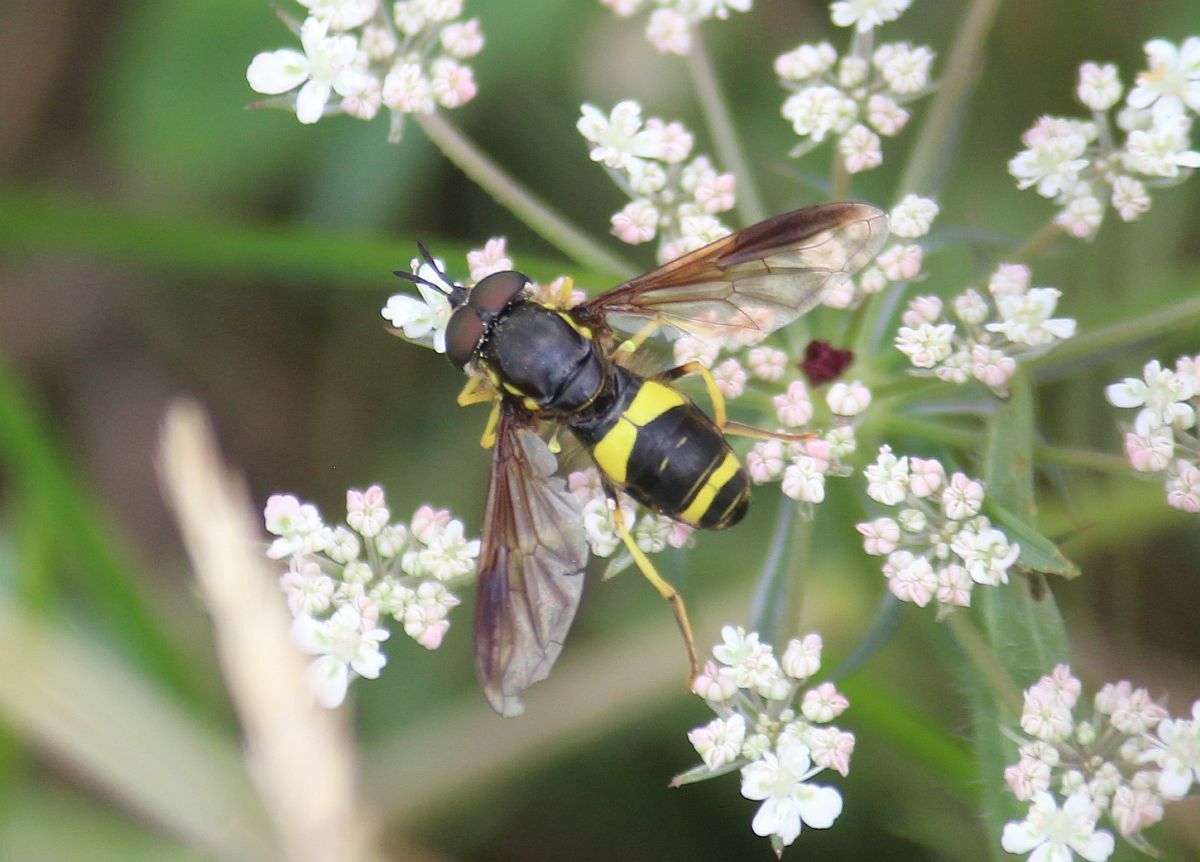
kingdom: Animalia
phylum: Arthropoda
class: Insecta
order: Diptera
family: Syrphidae
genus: Chrysotoxum
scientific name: Chrysotoxum bicincta
